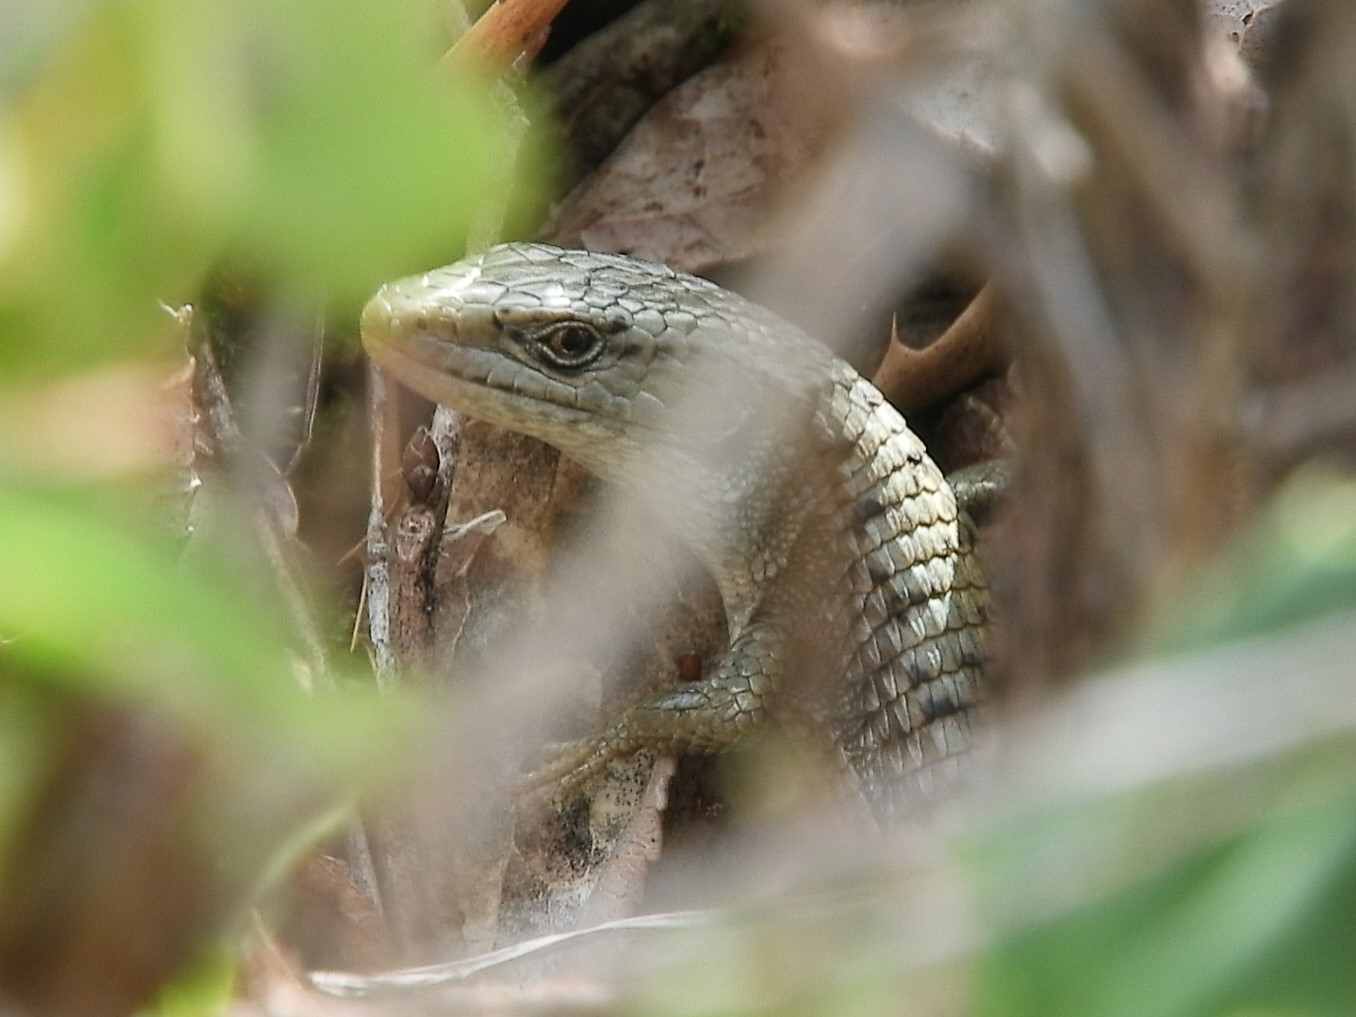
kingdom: Animalia
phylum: Chordata
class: Squamata
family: Anguidae
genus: Elgaria
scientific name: Elgaria coerulea
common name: Northern alligator lizard
